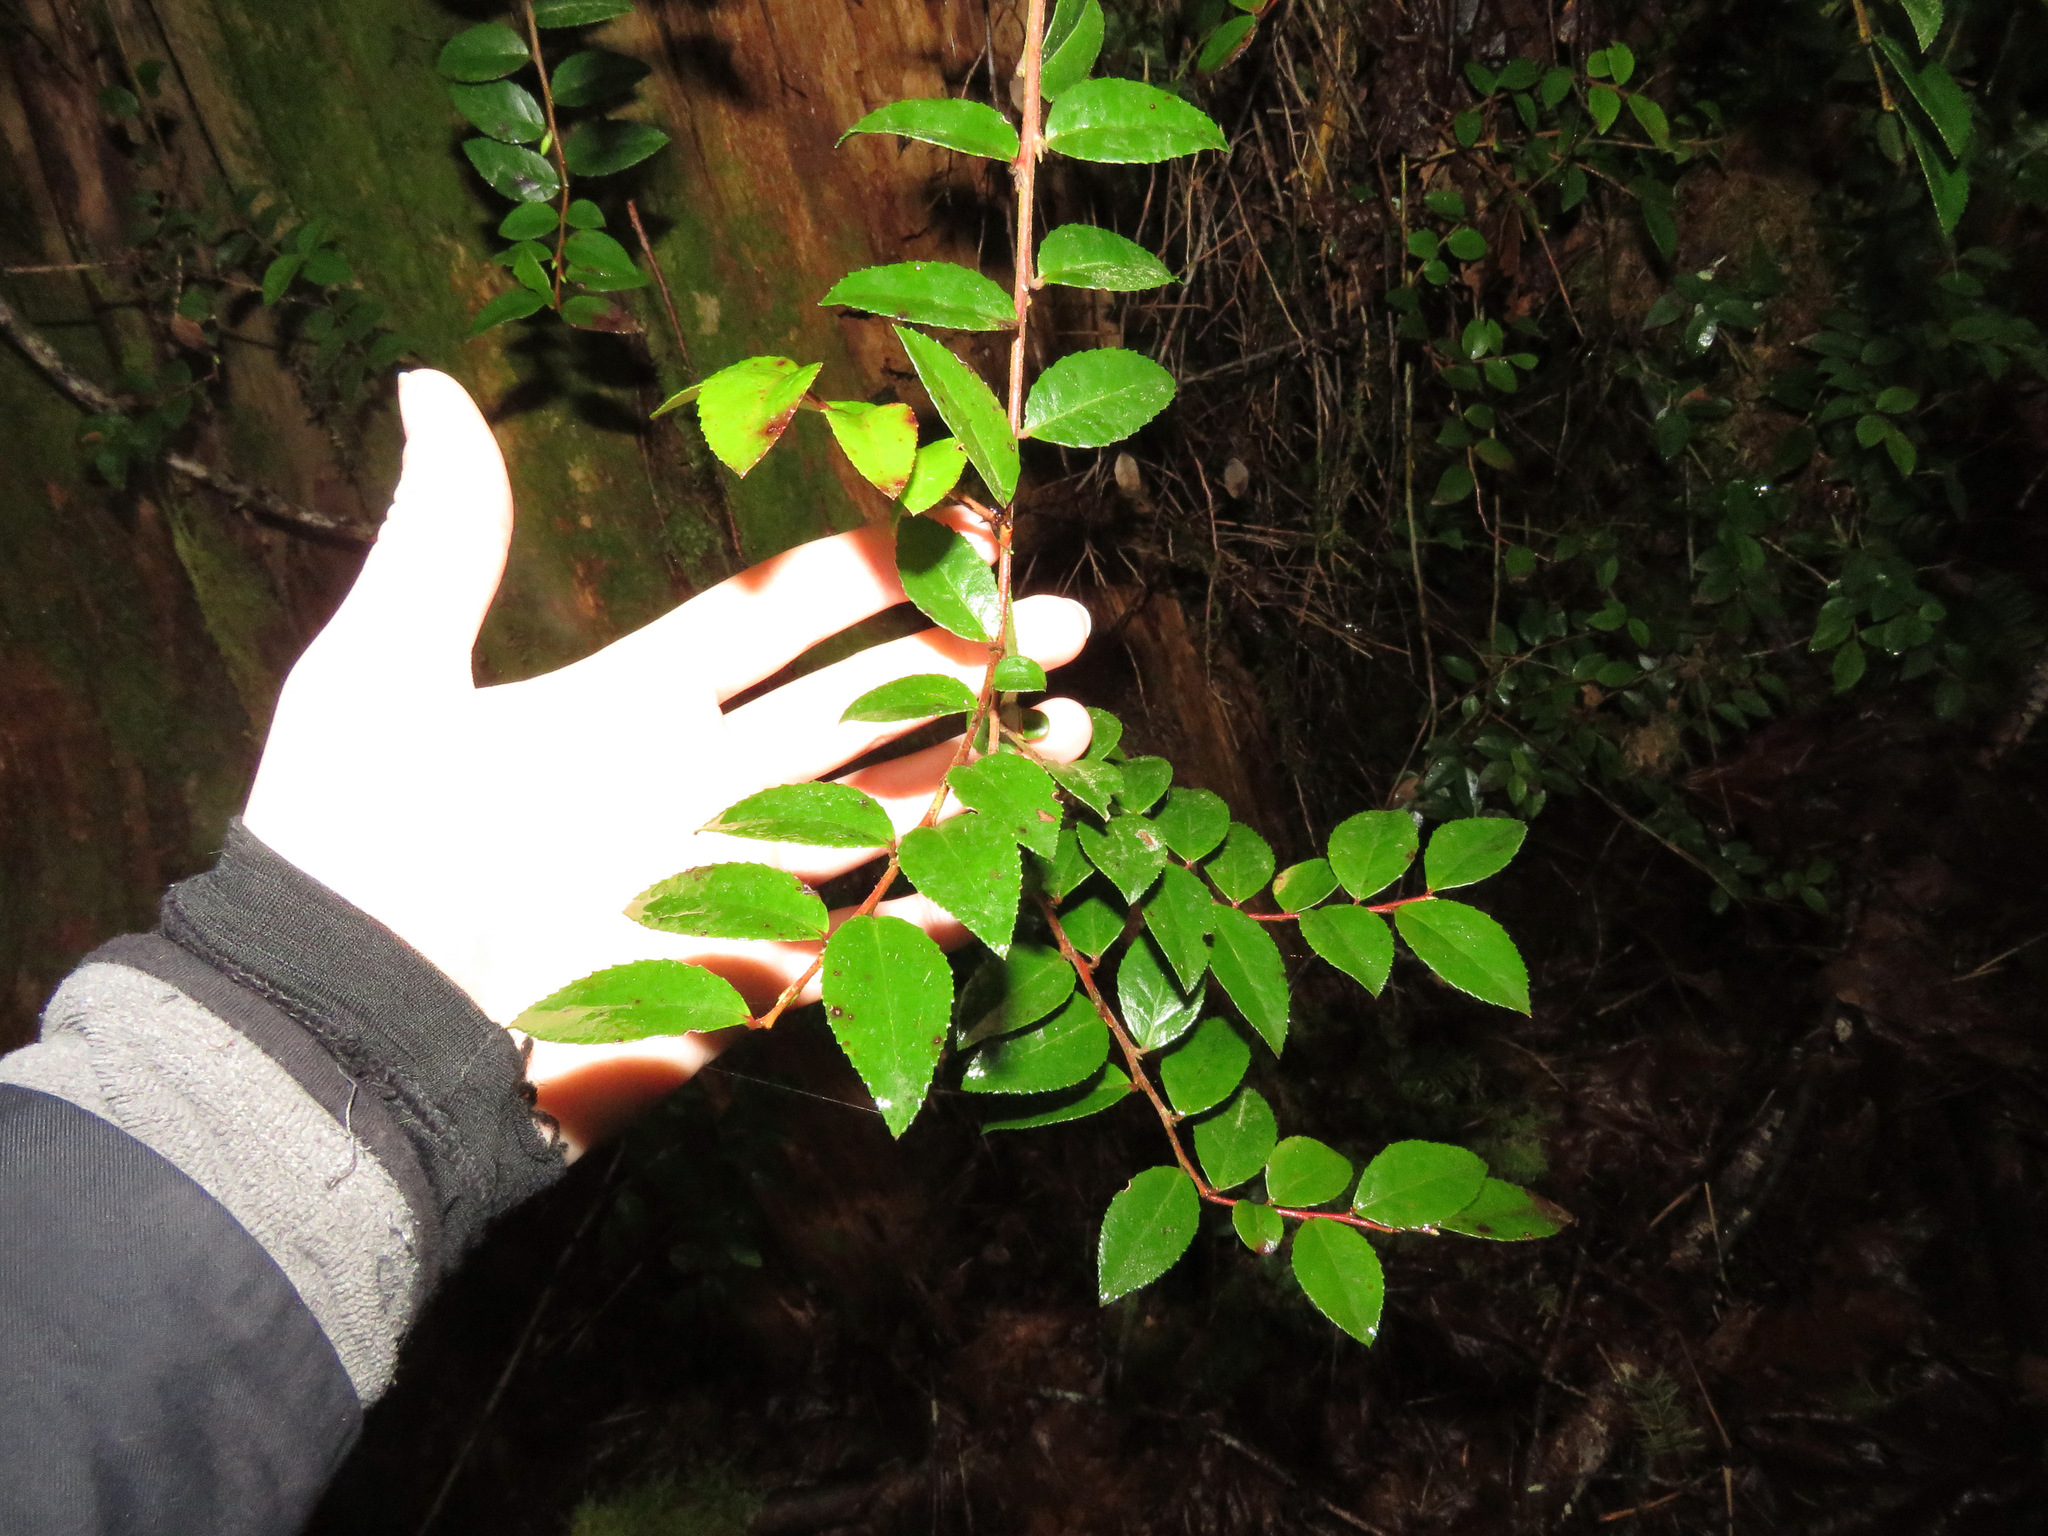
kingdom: Plantae
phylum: Tracheophyta
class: Magnoliopsida
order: Ericales
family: Ericaceae
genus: Vaccinium
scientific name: Vaccinium ovatum
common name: California-huckleberry
